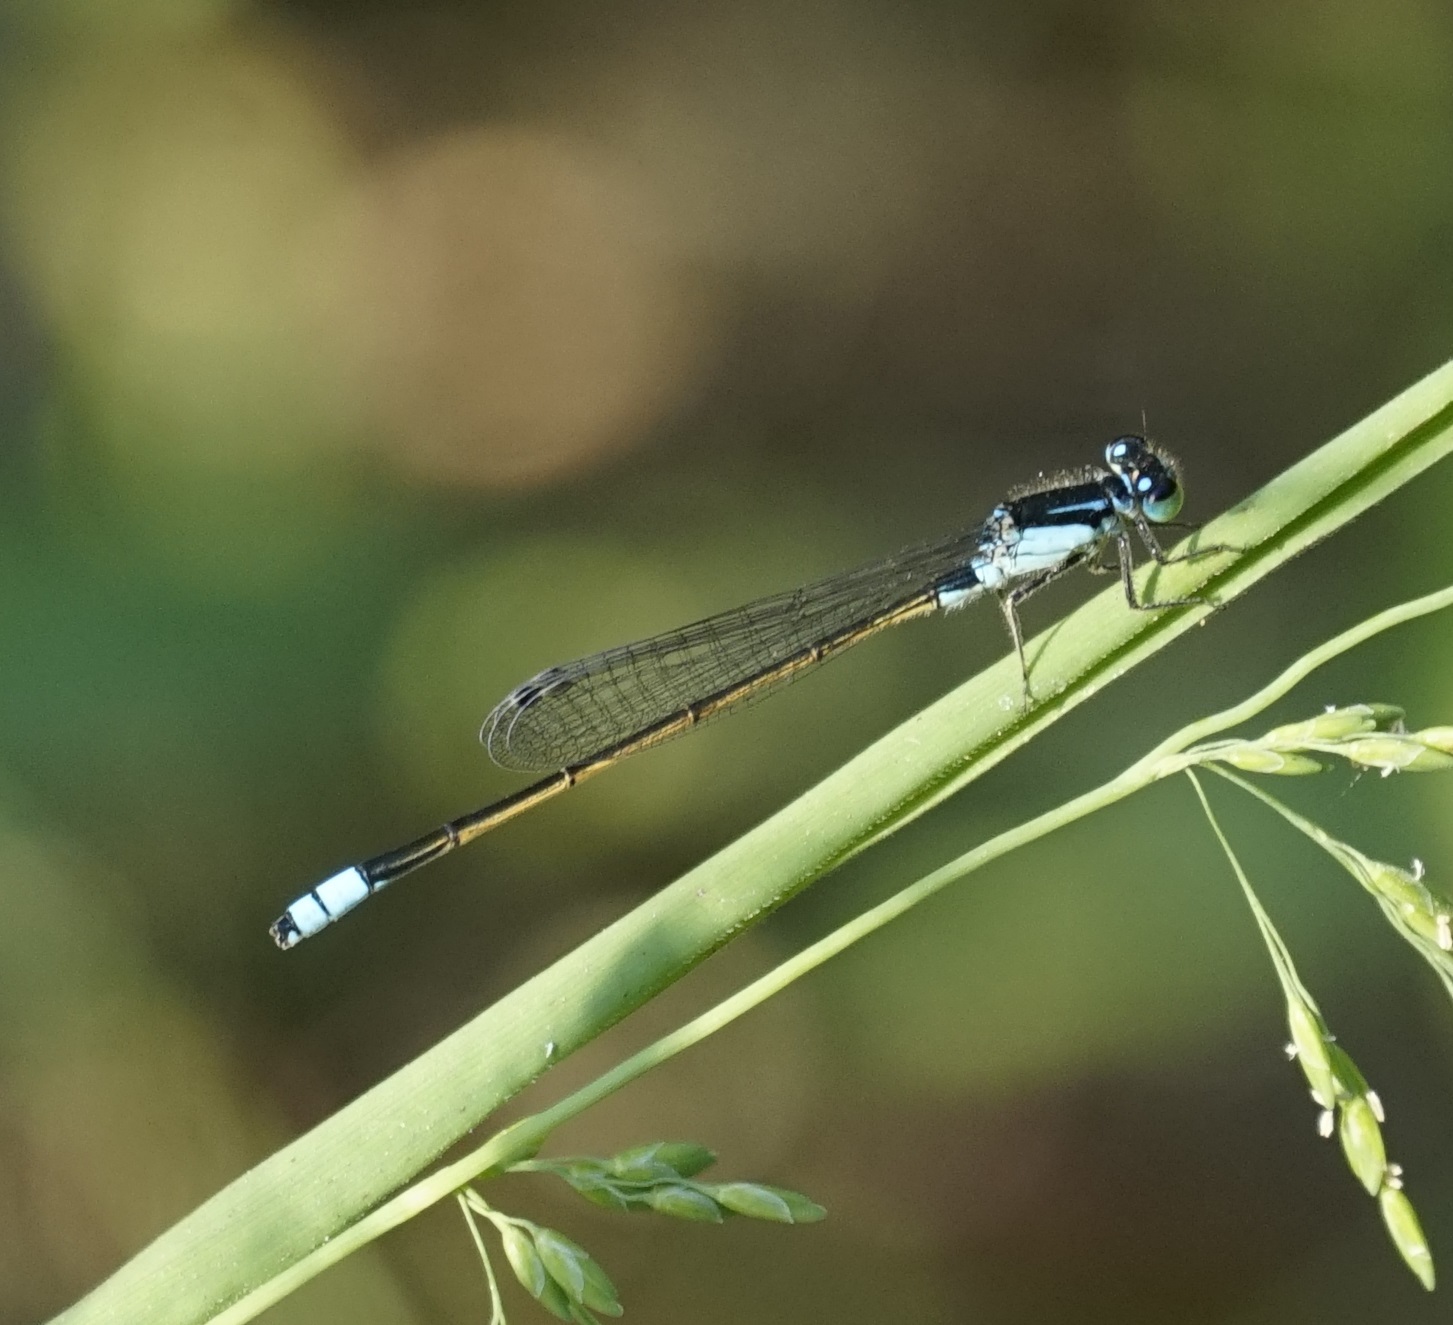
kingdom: Animalia
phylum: Arthropoda
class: Insecta
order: Odonata
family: Coenagrionidae
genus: Ischnura
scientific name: Ischnura heterosticta
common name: Common bluetail
